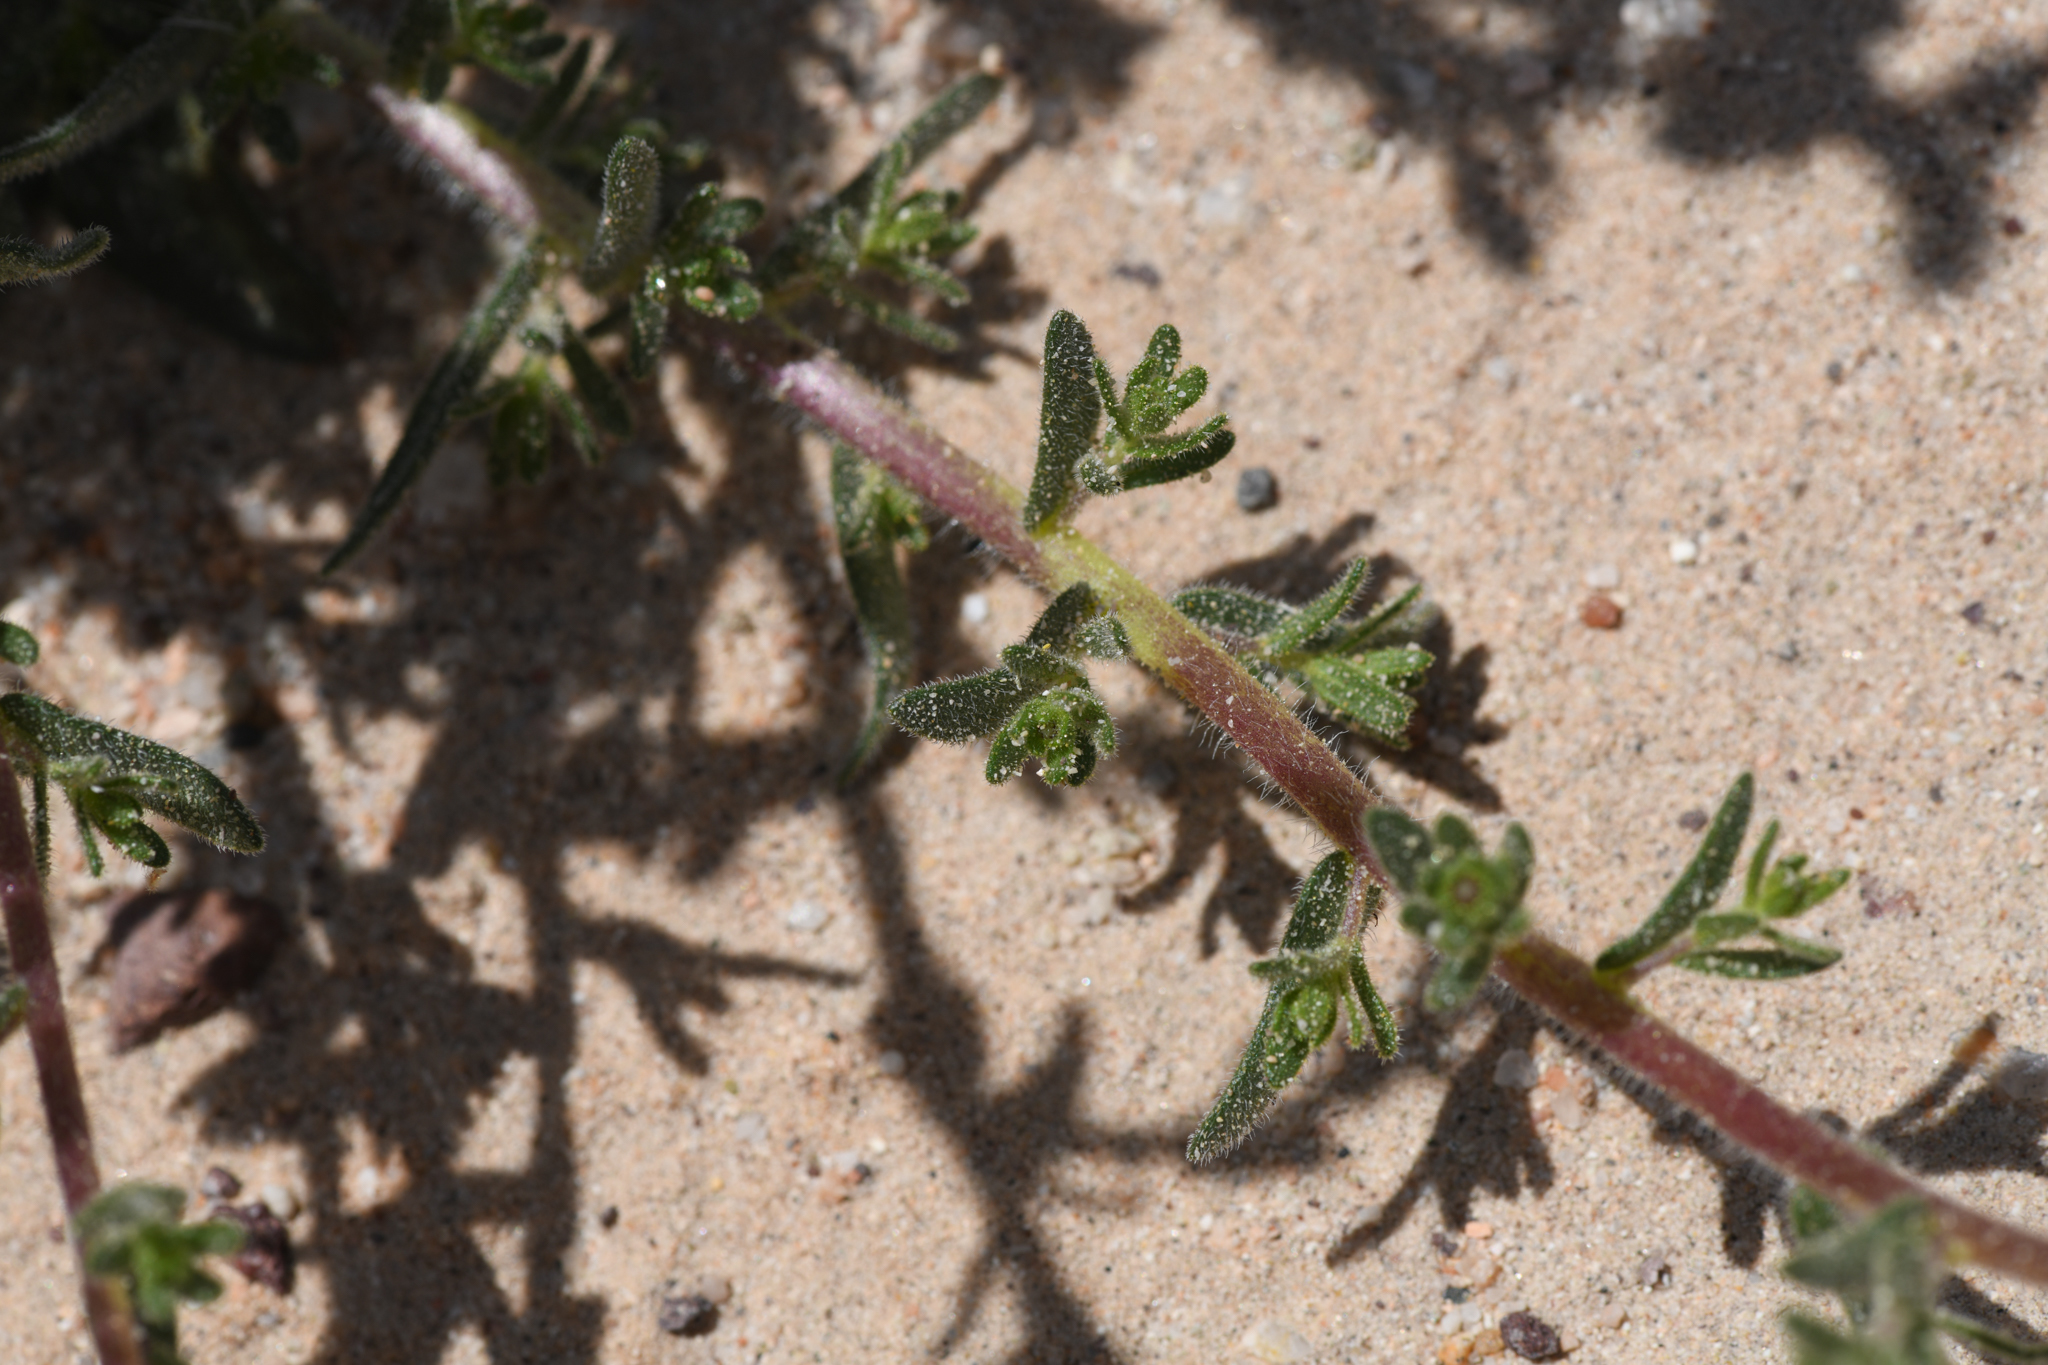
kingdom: Plantae
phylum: Tracheophyta
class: Magnoliopsida
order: Asterales
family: Asteraceae
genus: Deinandra
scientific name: Deinandra arida
